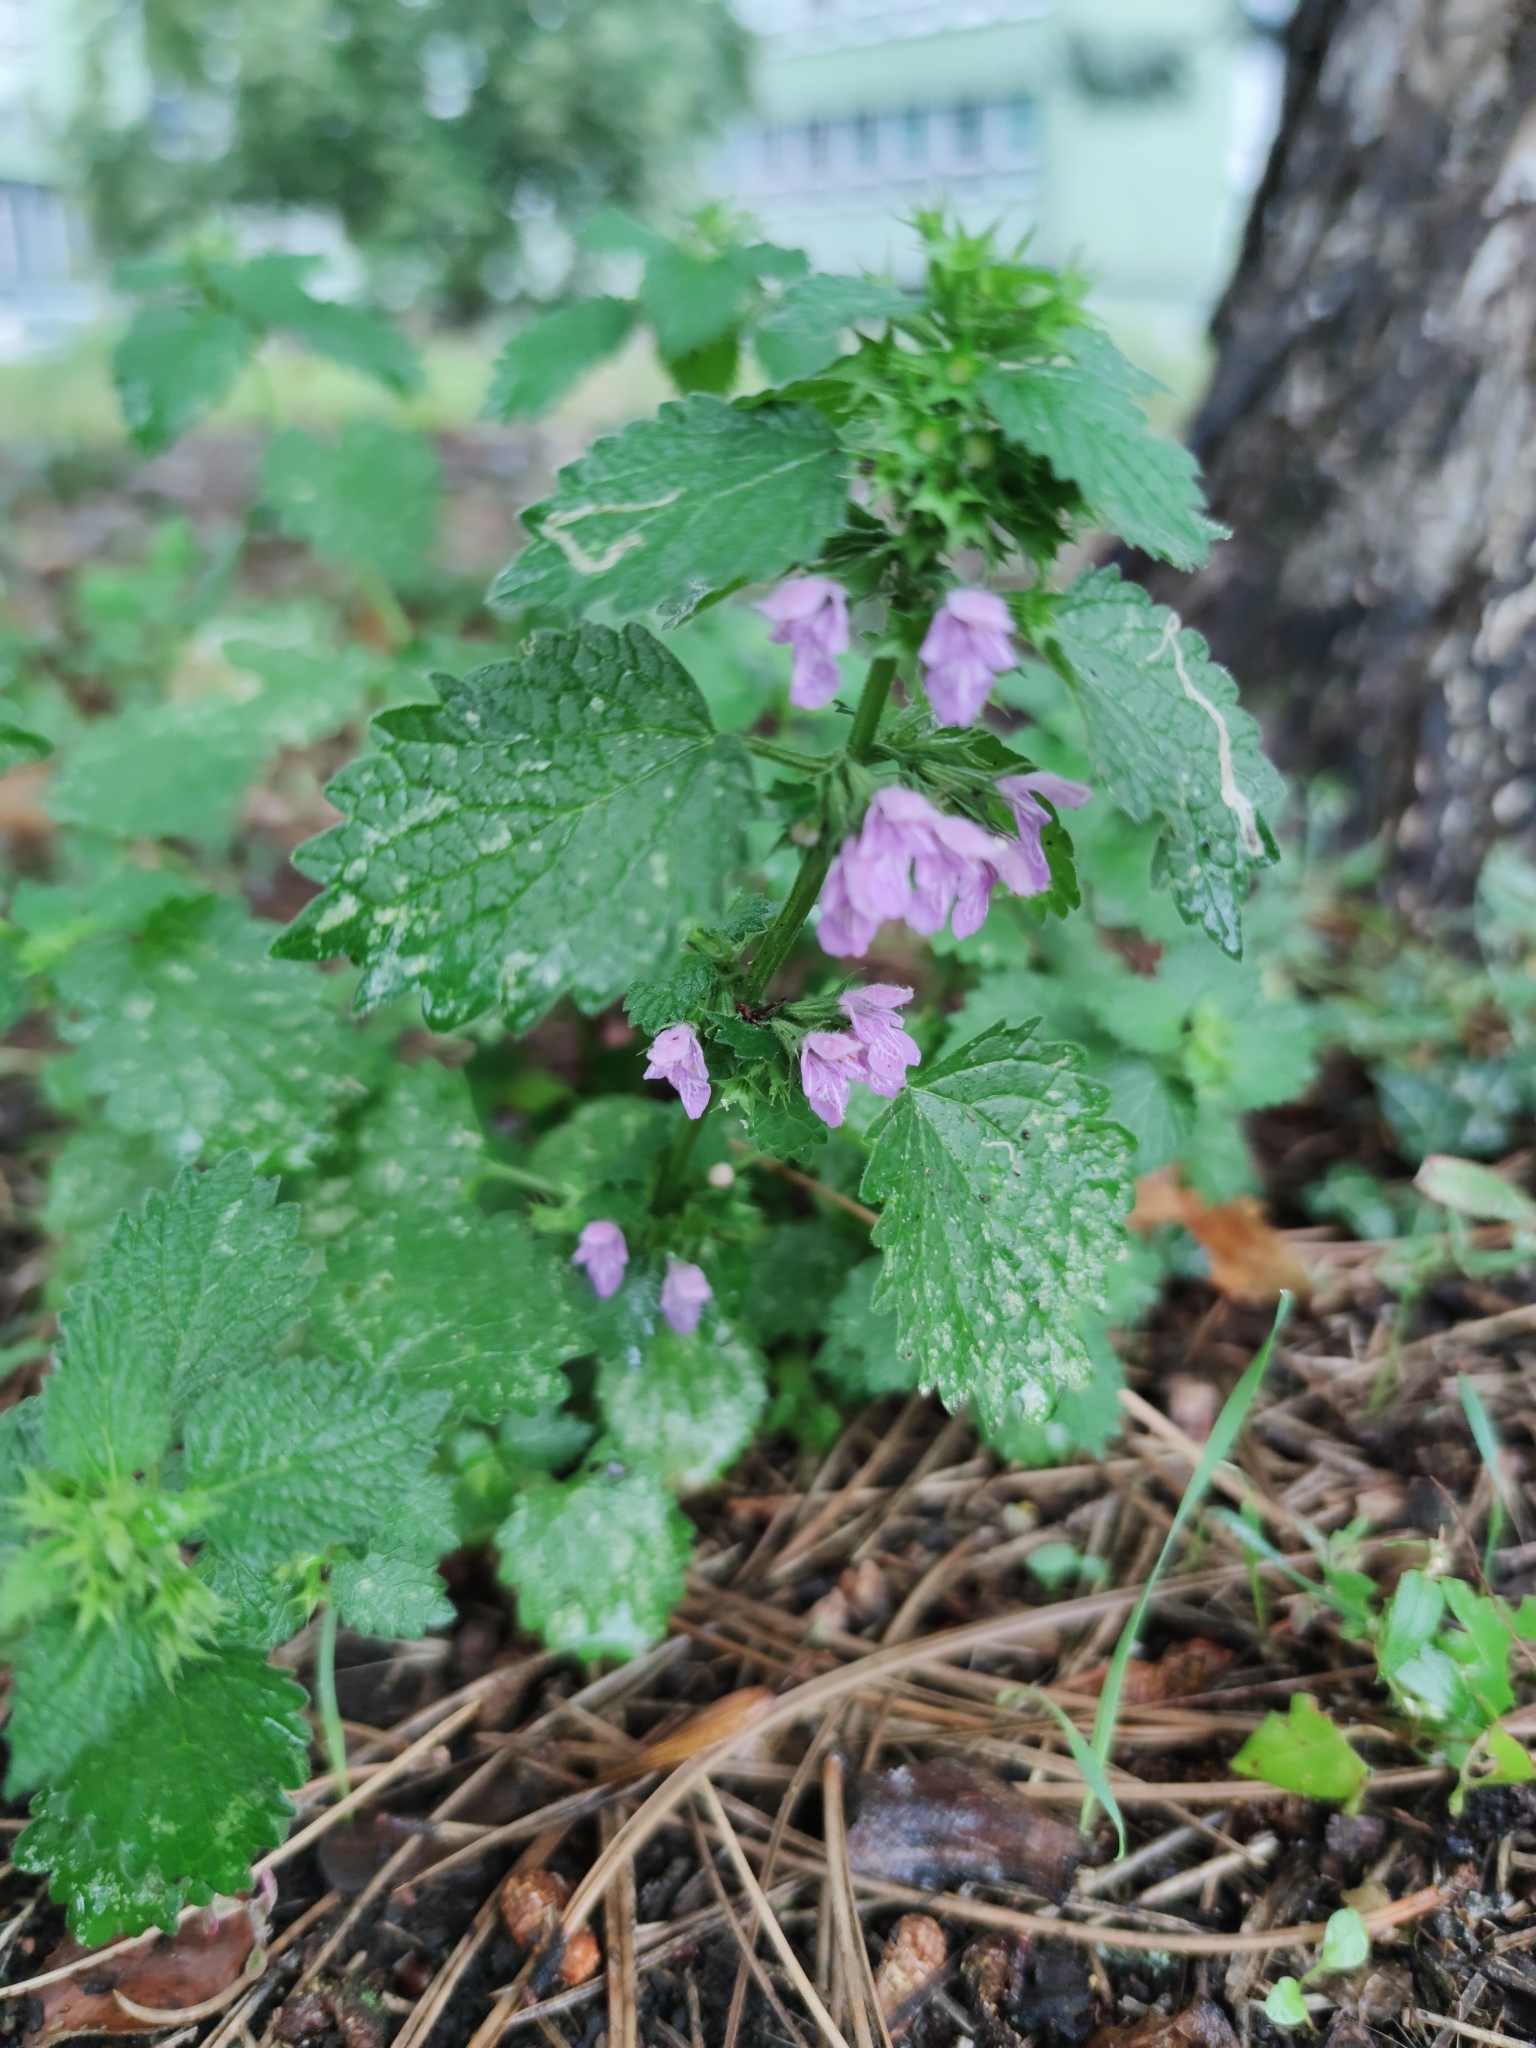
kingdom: Plantae
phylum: Tracheophyta
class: Magnoliopsida
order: Lamiales
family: Lamiaceae
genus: Ballota
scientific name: Ballota nigra
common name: Black horehound
